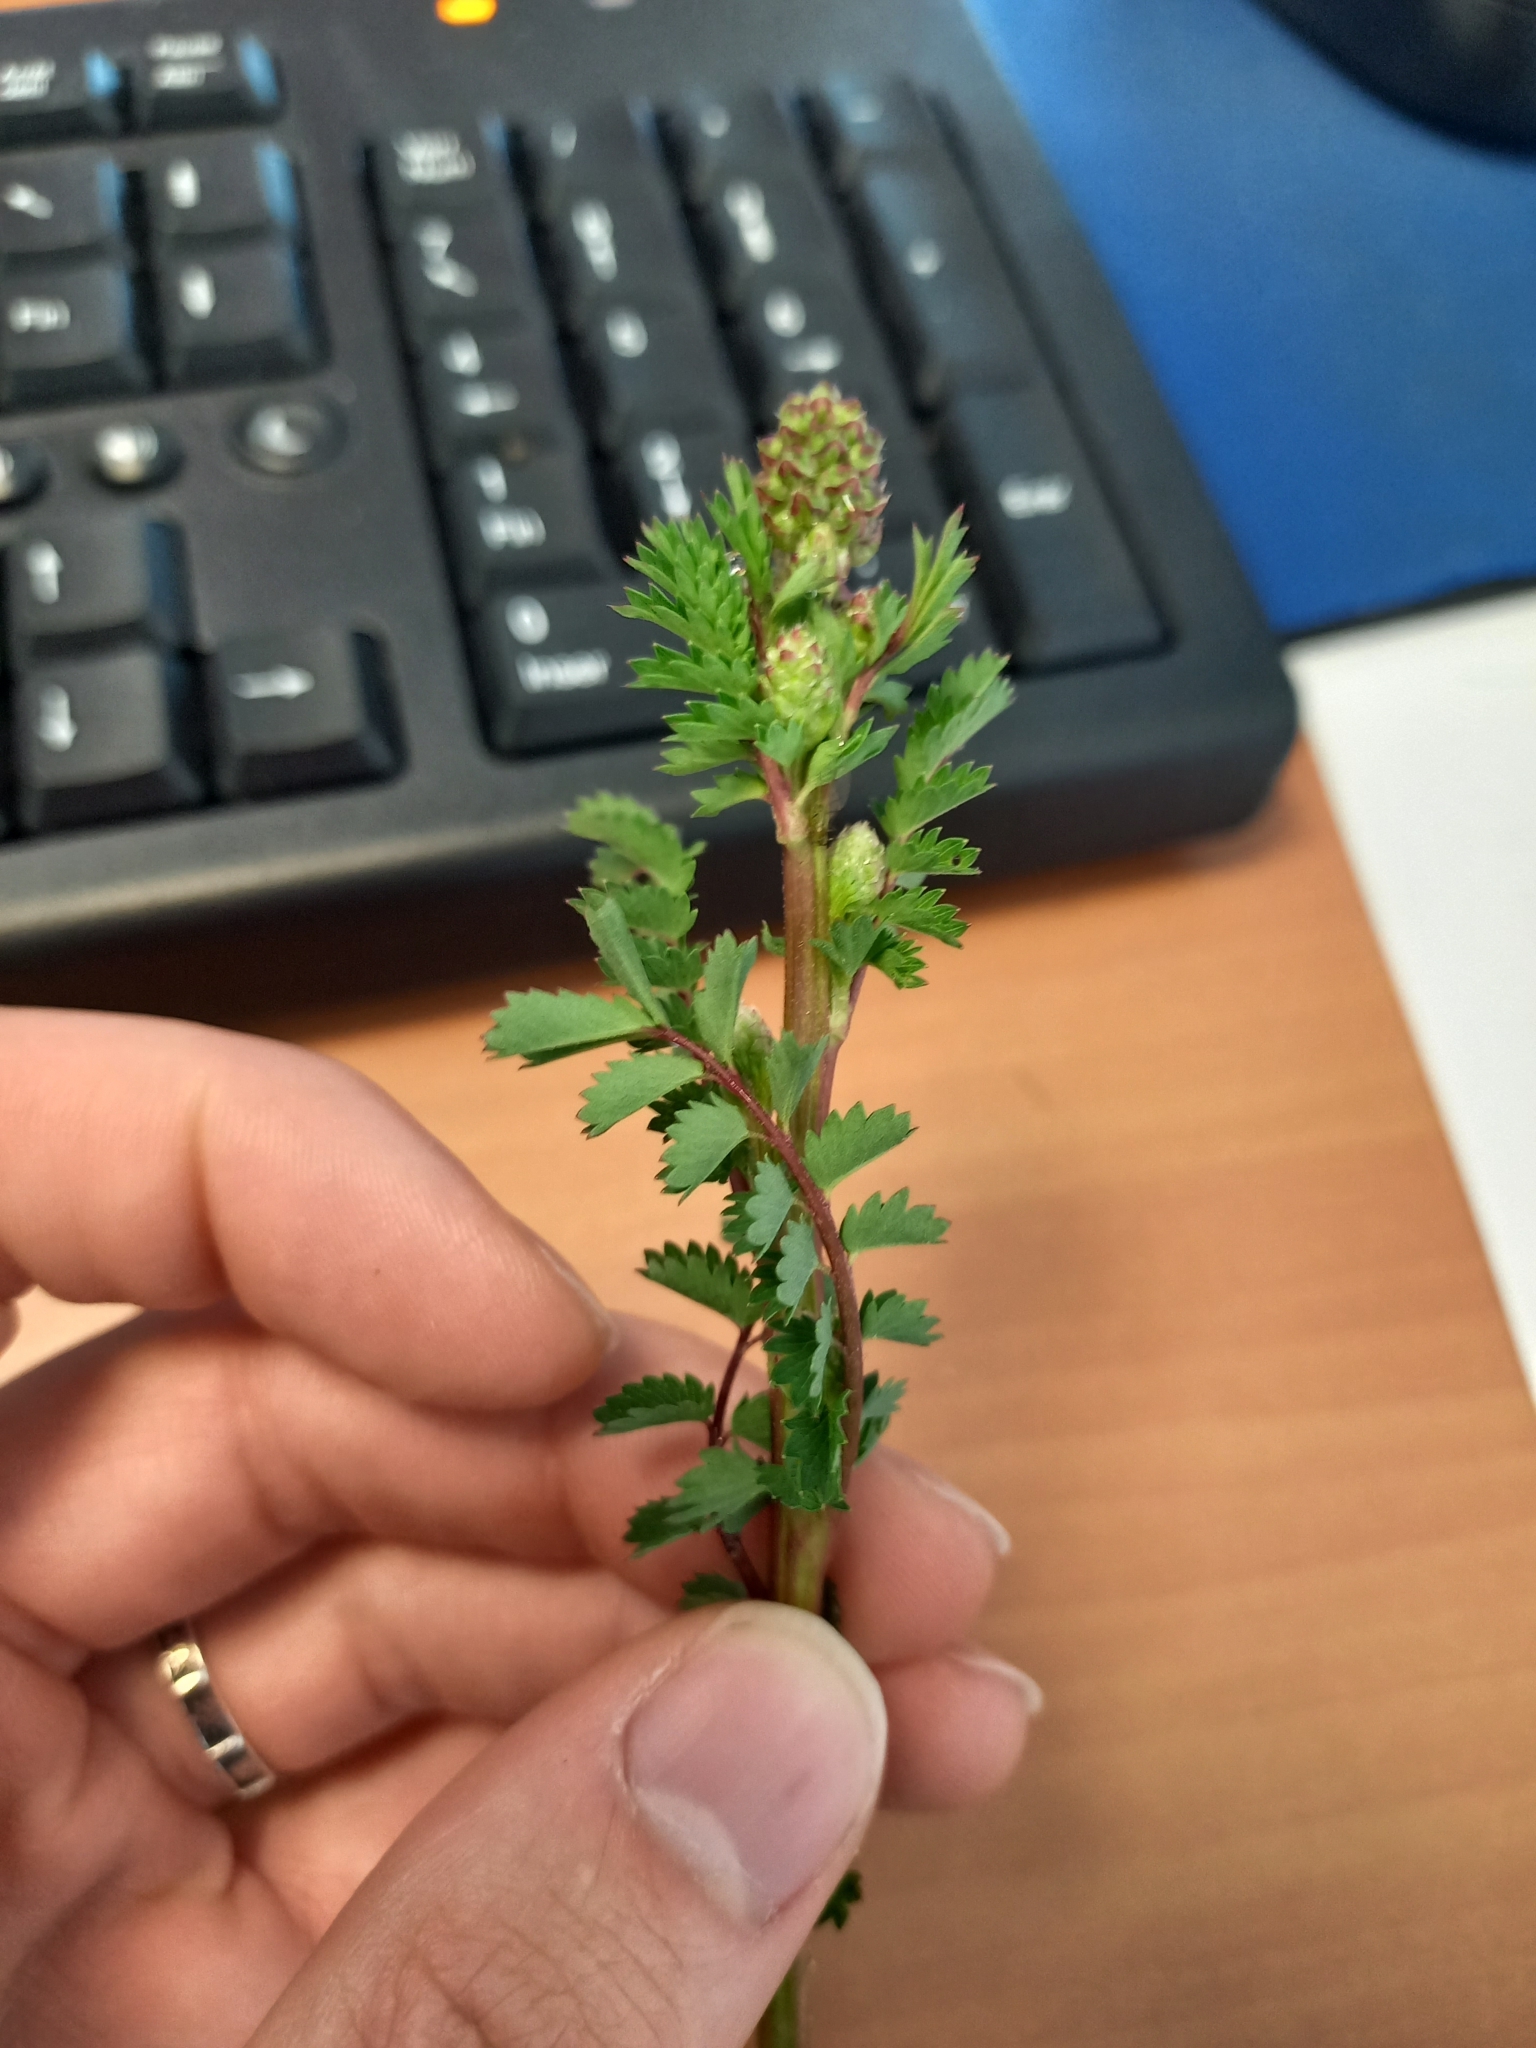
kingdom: Plantae
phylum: Tracheophyta
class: Magnoliopsida
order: Rosales
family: Rosaceae
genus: Poterium
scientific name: Poterium sanguisorba
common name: Salad burnet
